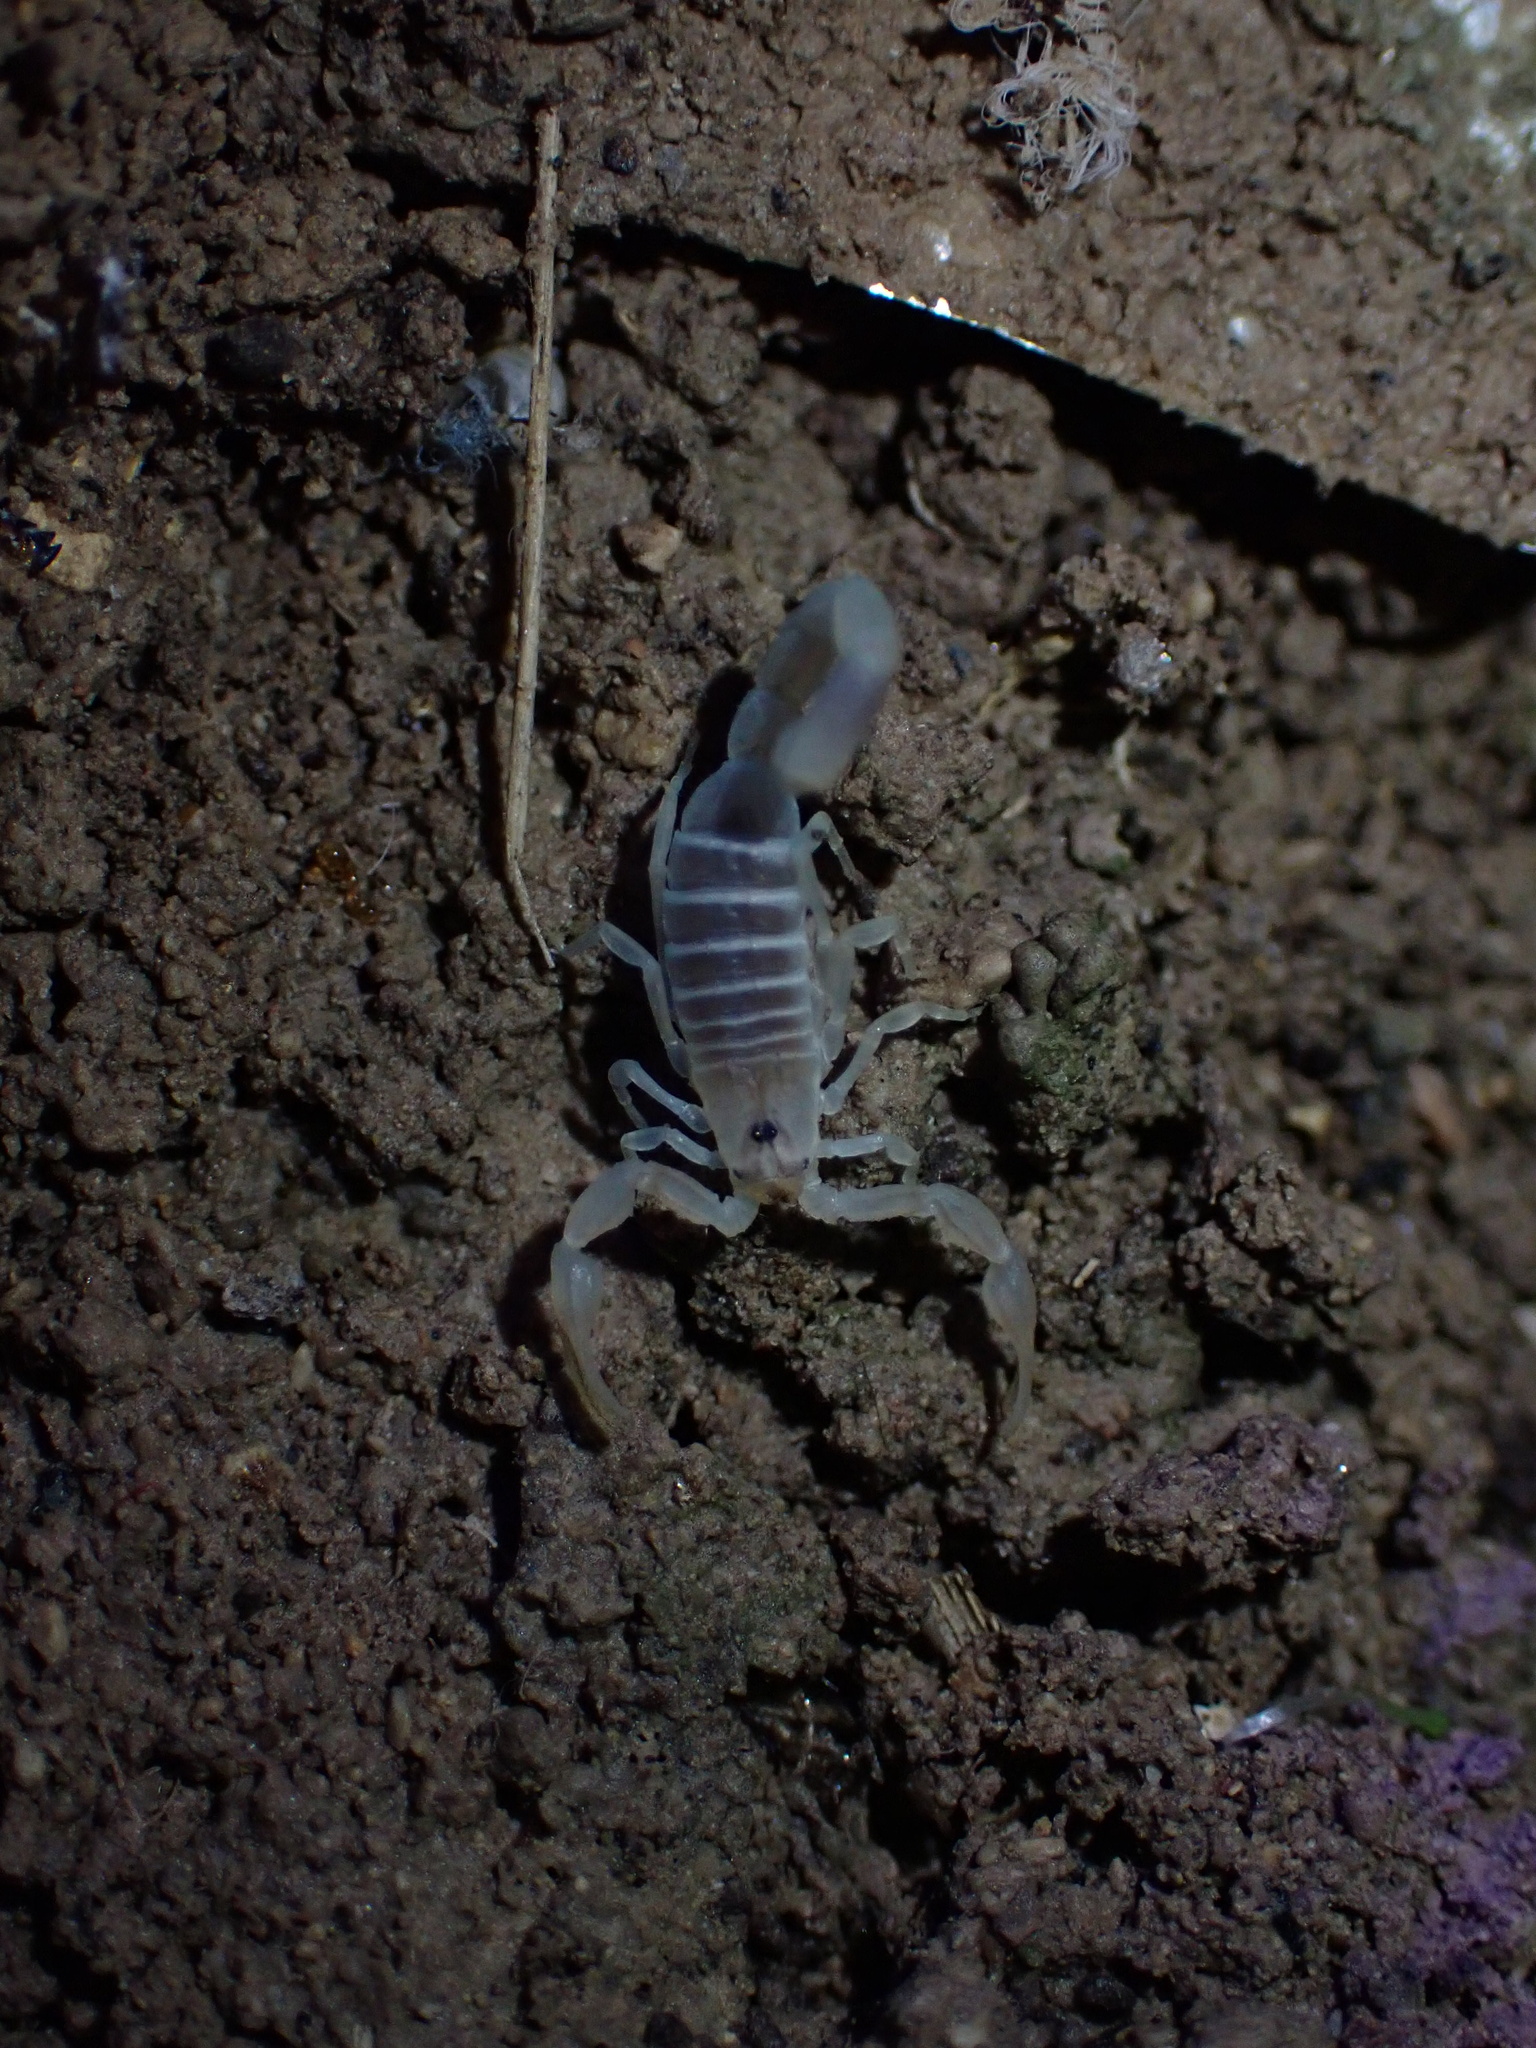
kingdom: Animalia
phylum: Arthropoda
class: Arachnida
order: Scorpiones
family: Buthidae
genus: Razianus
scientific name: Razianus zarudnyi
